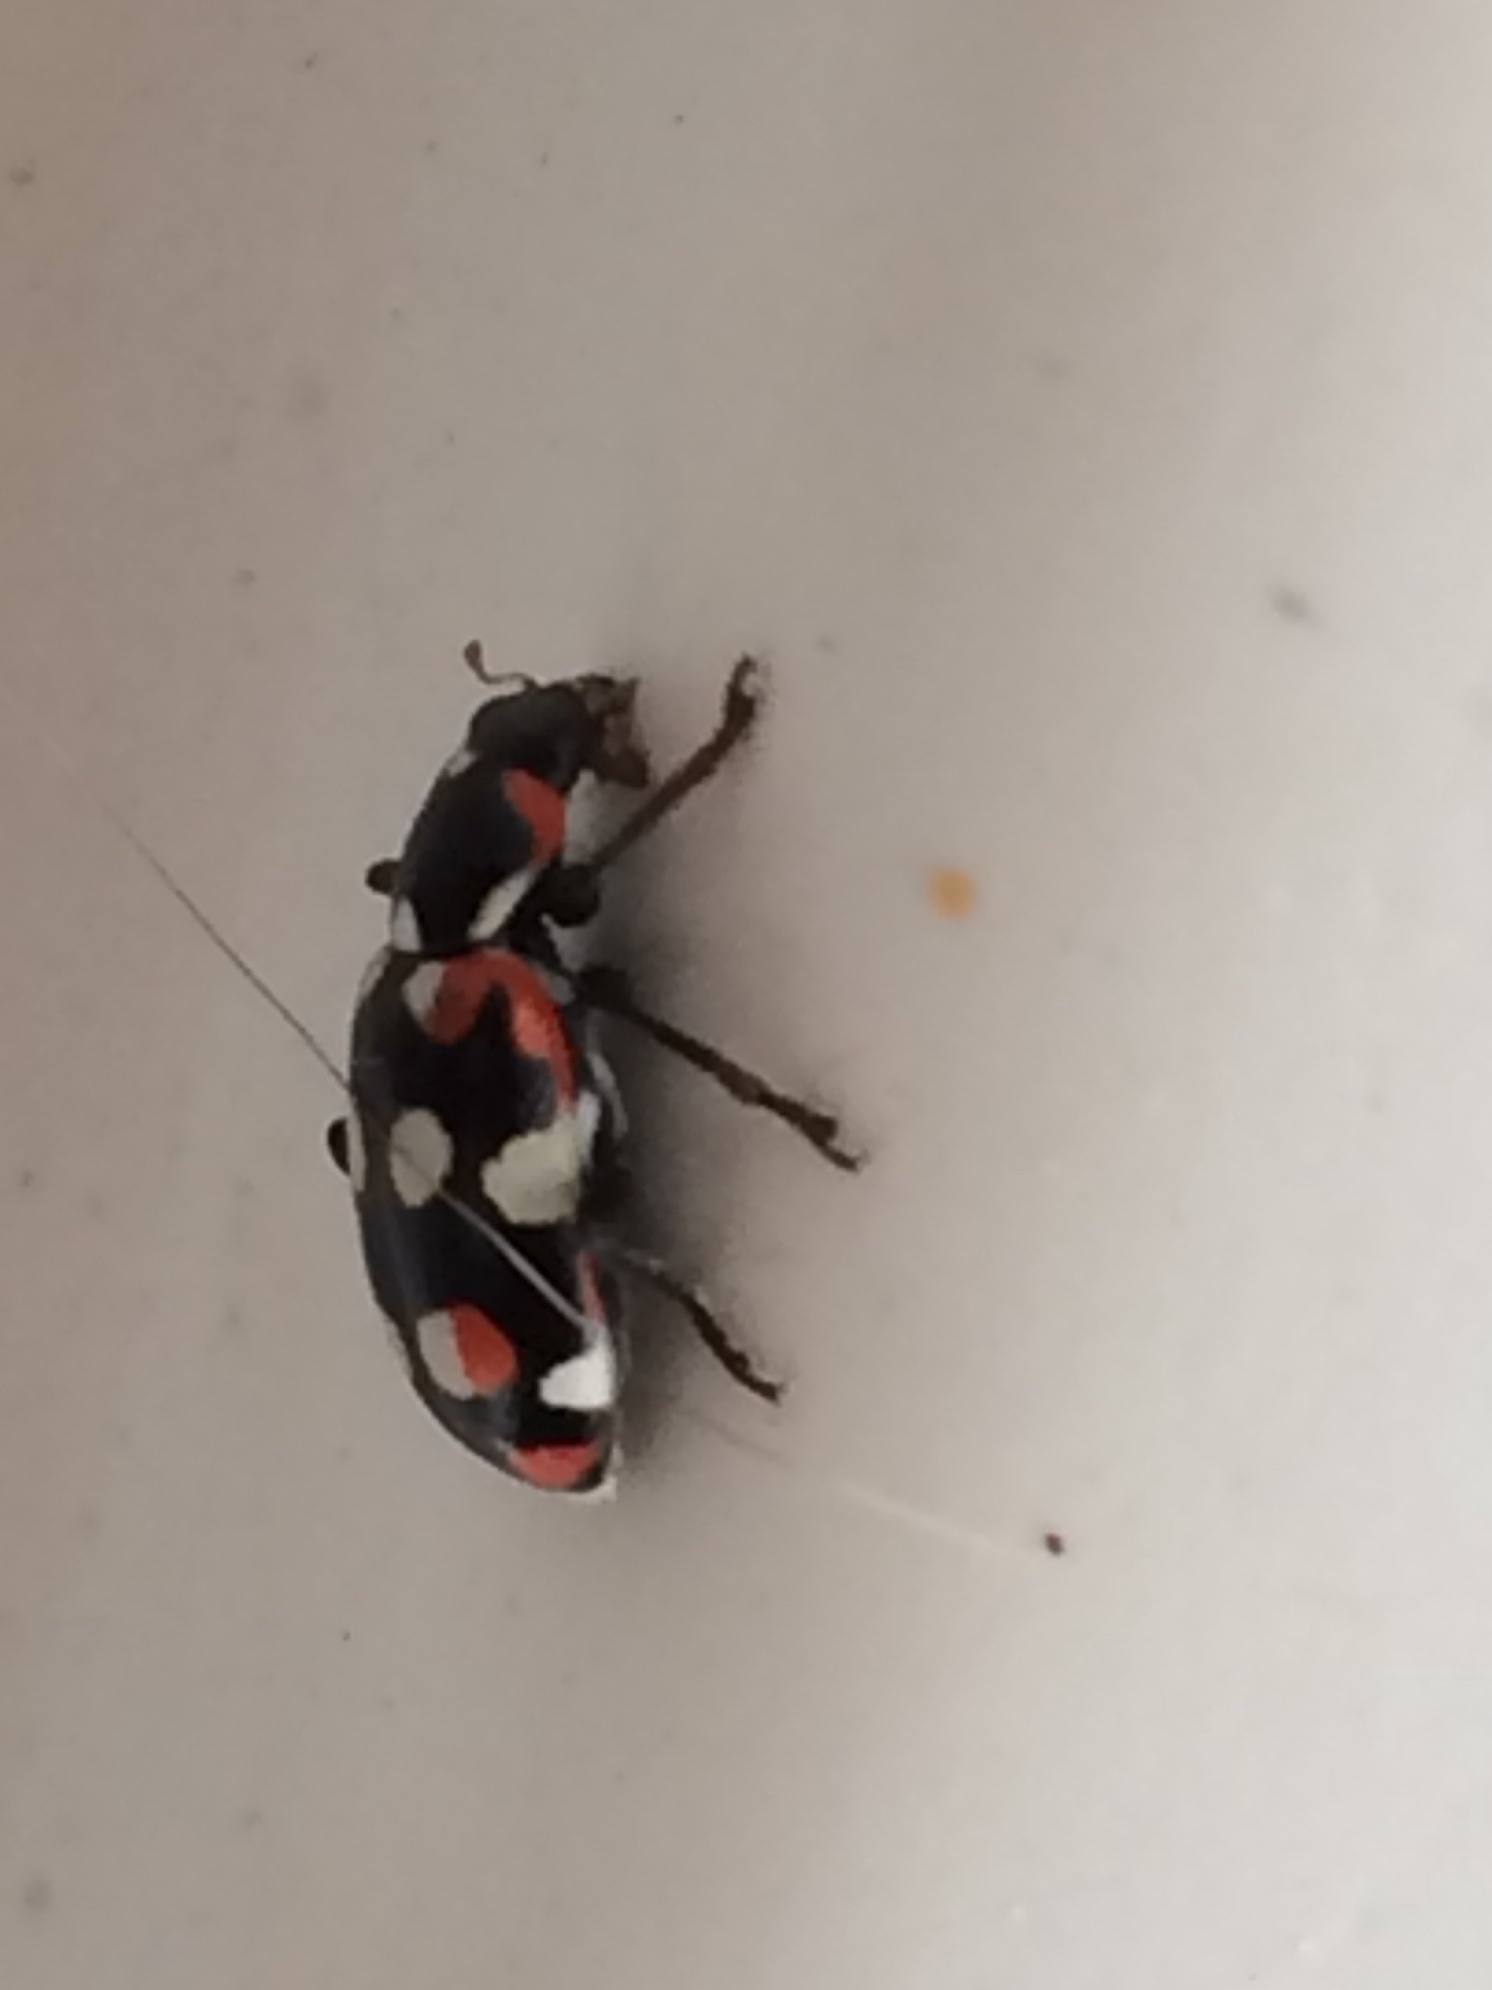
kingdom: Animalia
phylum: Arthropoda
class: Insecta
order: Coleoptera
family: Coccinellidae
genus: Eriopis
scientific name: Eriopis connexa
